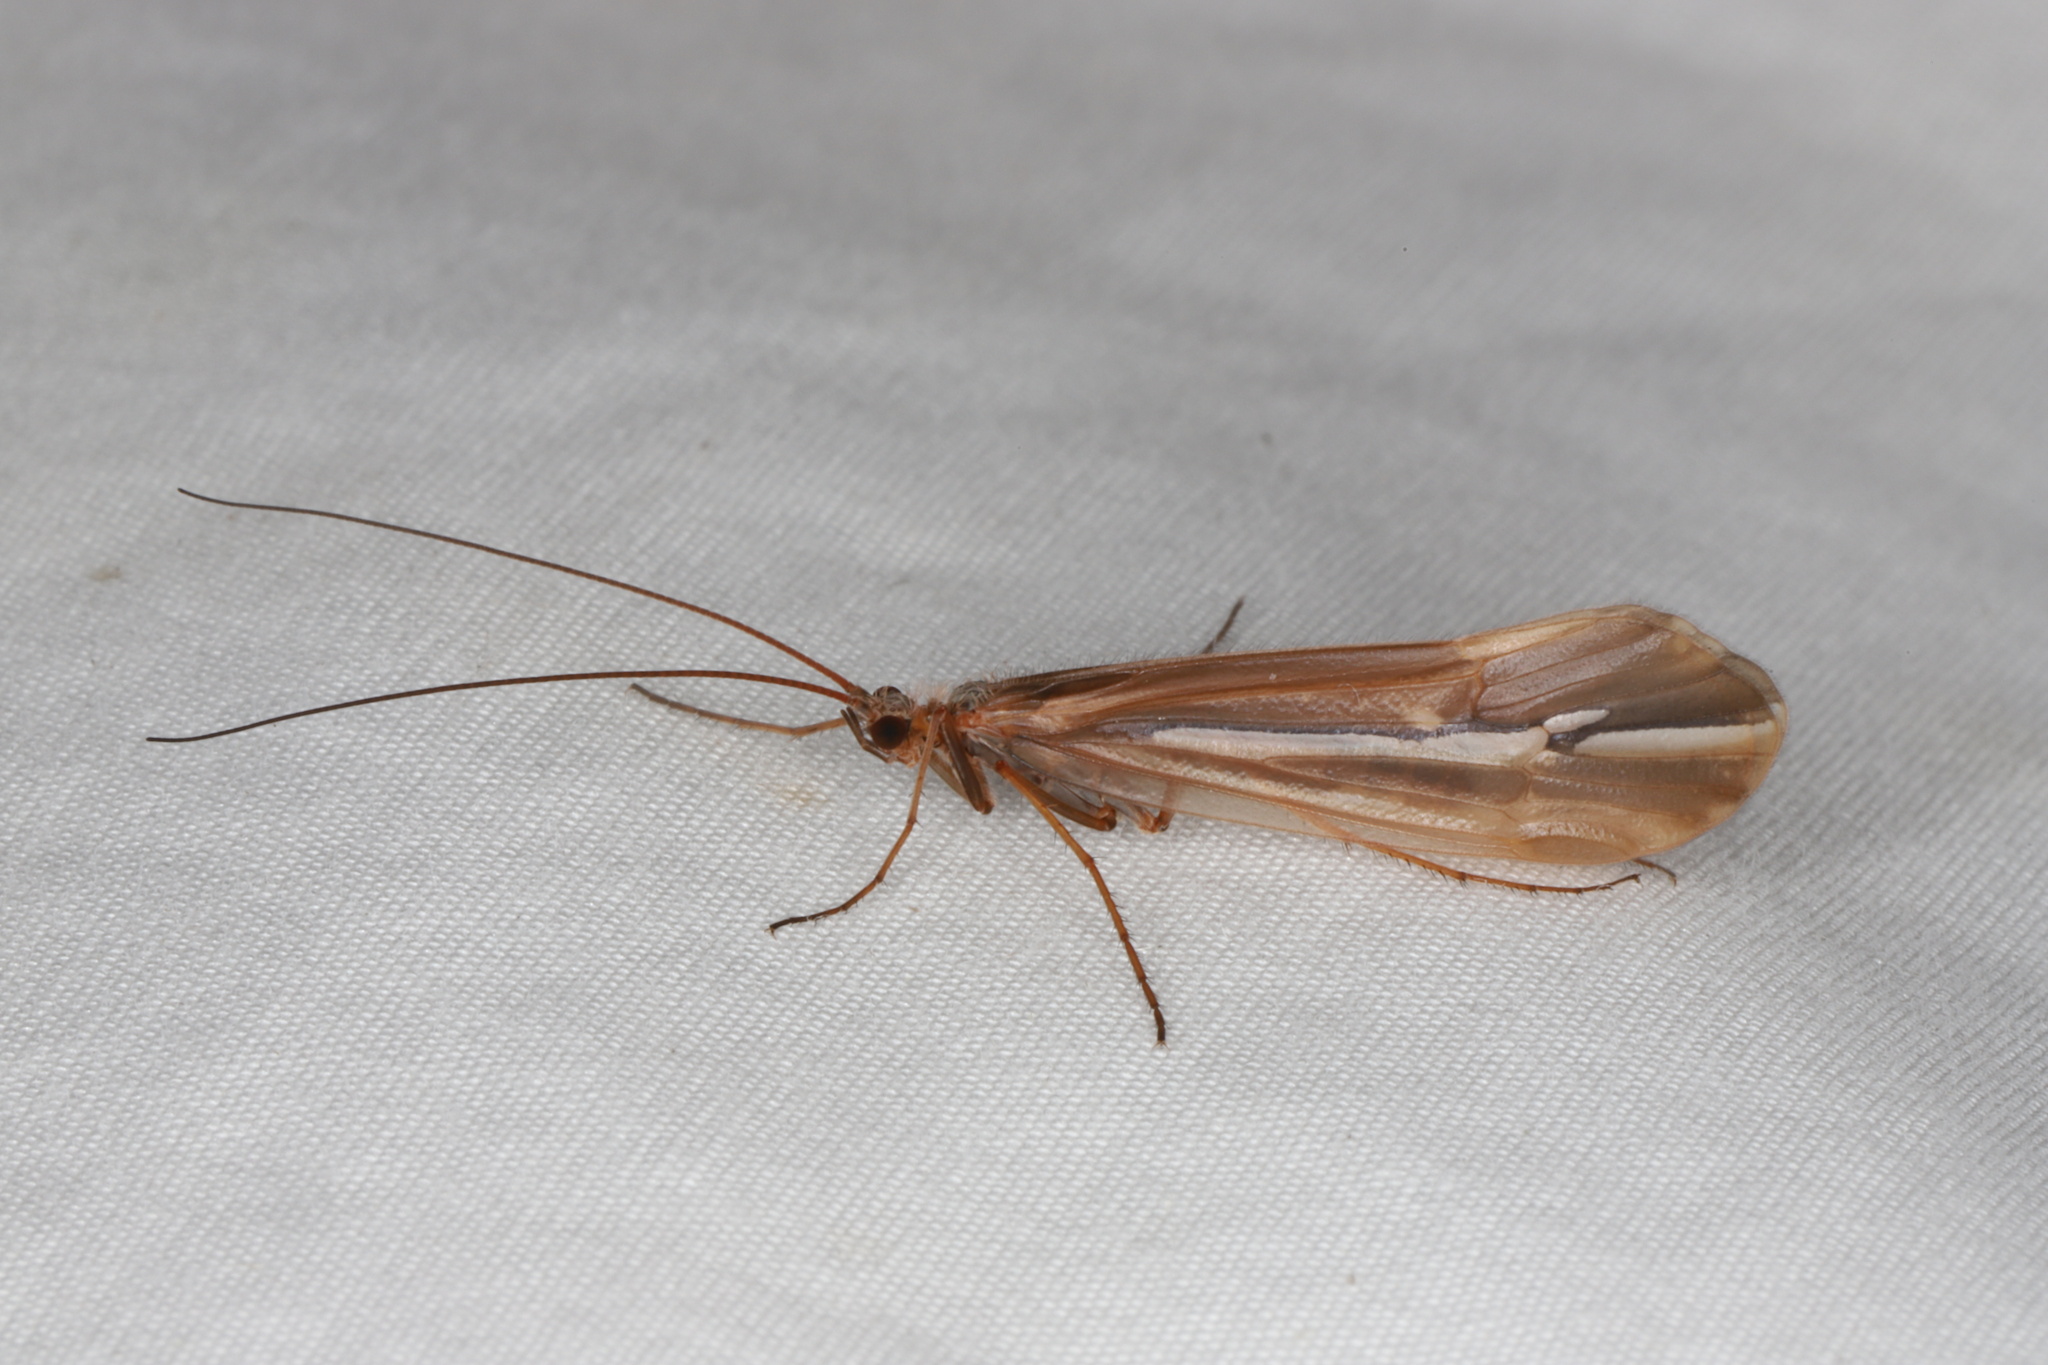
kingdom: Animalia
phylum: Arthropoda
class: Insecta
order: Trichoptera
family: Limnephilidae
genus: Psychoglypha
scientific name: Psychoglypha subborealis
